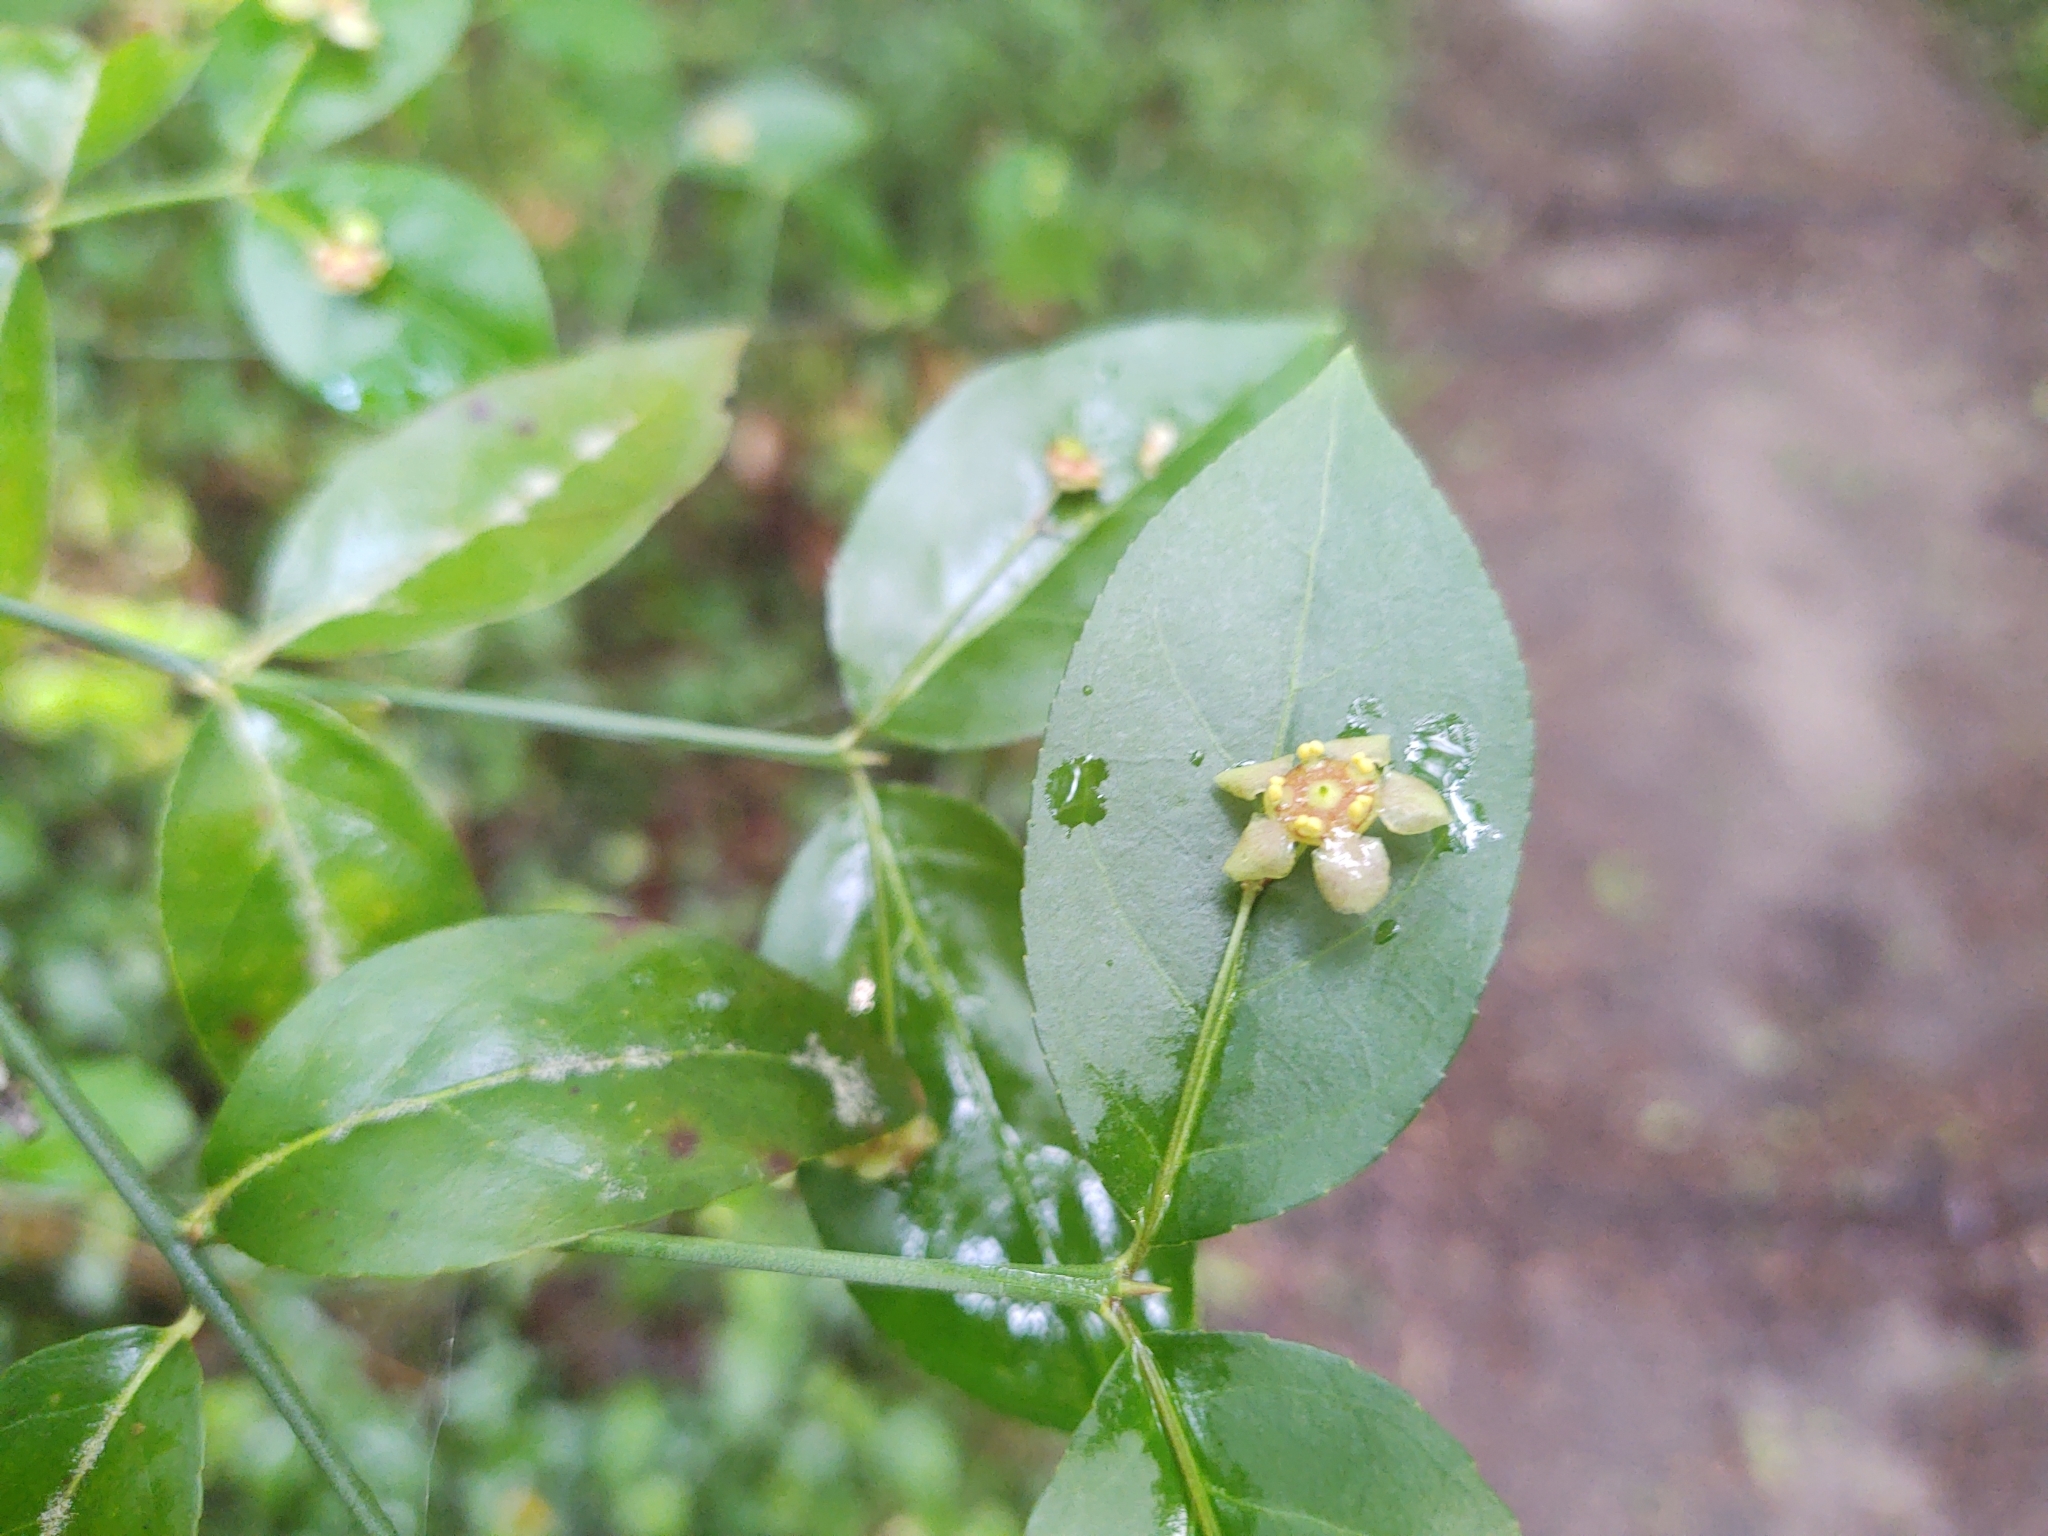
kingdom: Plantae
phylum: Tracheophyta
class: Magnoliopsida
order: Celastrales
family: Celastraceae
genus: Euonymus
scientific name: Euonymus americanus
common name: Bursting-heart
